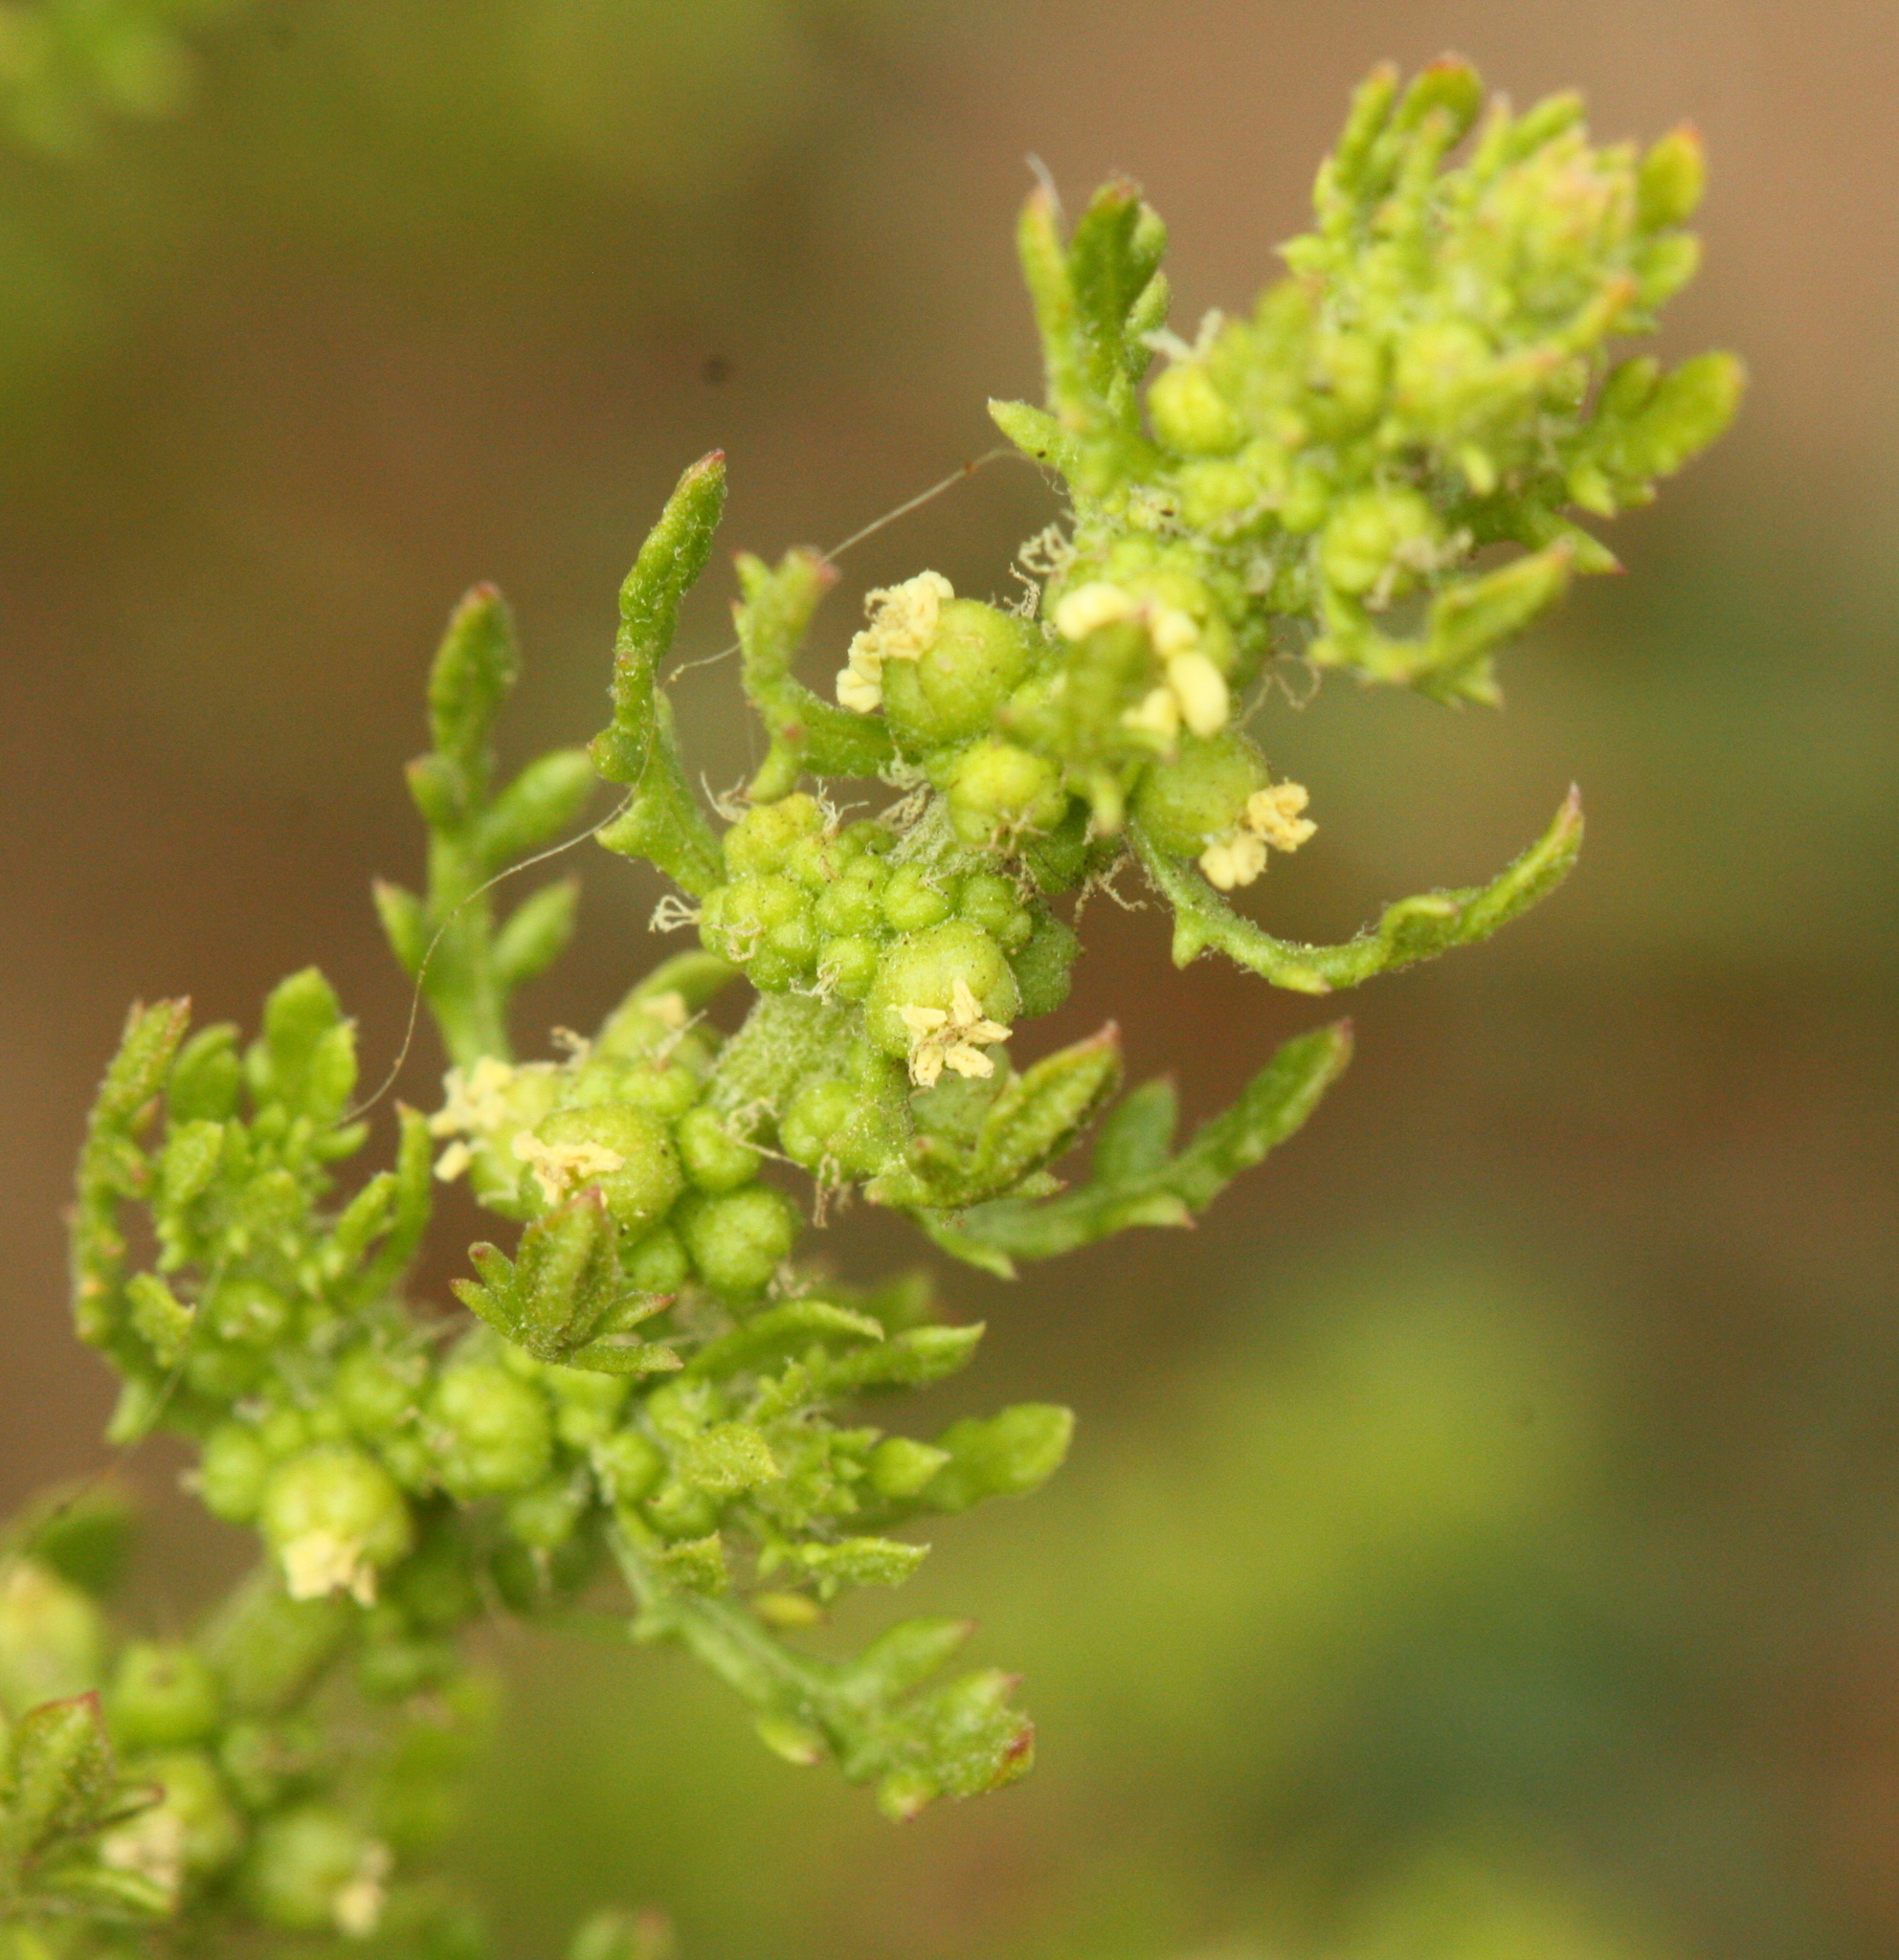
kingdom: Plantae
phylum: Tracheophyta
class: Magnoliopsida
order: Caryophyllales
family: Amaranthaceae
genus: Dysphania
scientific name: Dysphania multifida
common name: Cutleaf goosefoot
